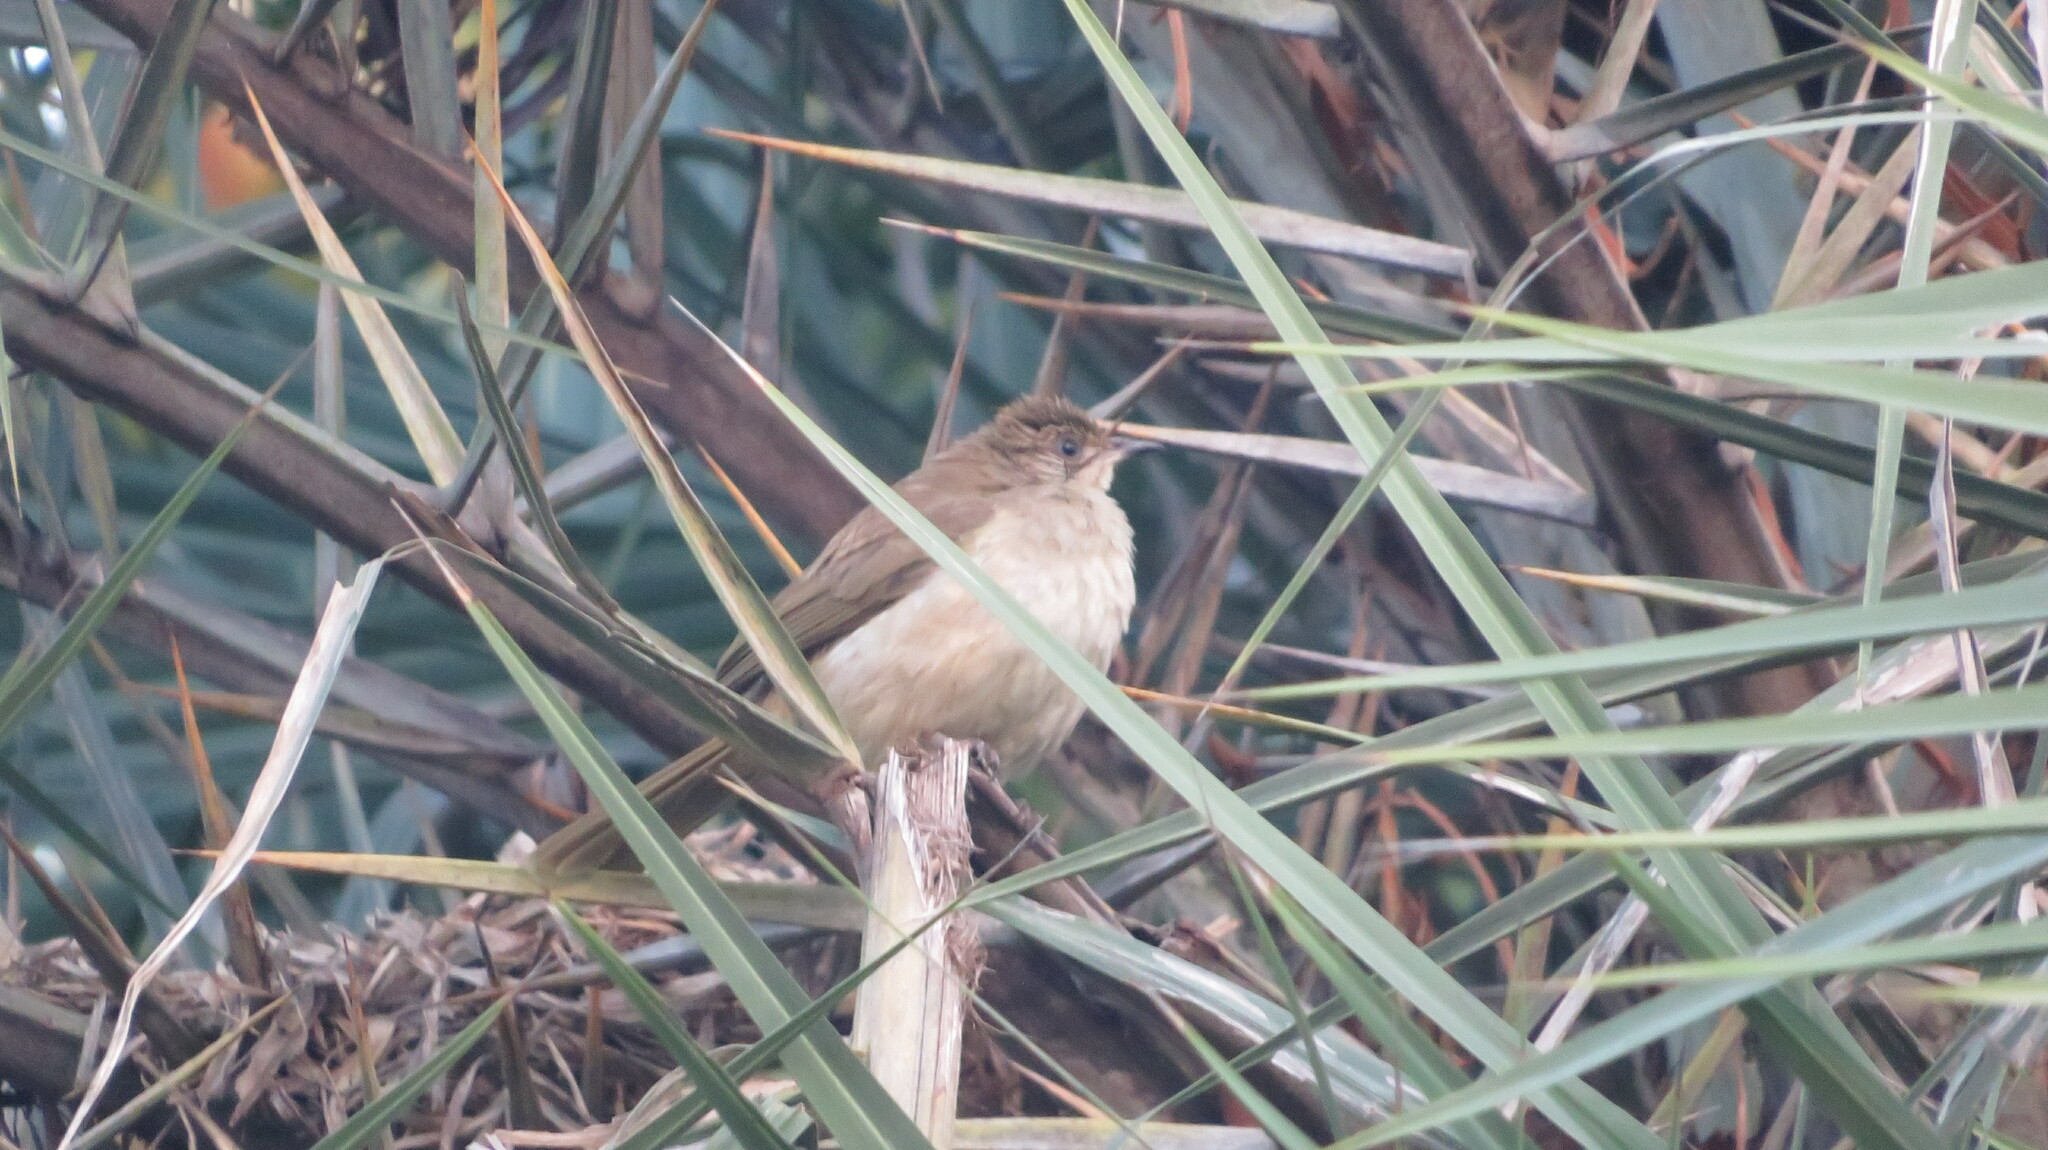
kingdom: Animalia
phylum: Chordata
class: Aves
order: Passeriformes
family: Pycnonotidae
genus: Pycnonotus
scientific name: Pycnonotus blanfordi
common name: Streak-eared bulbul
